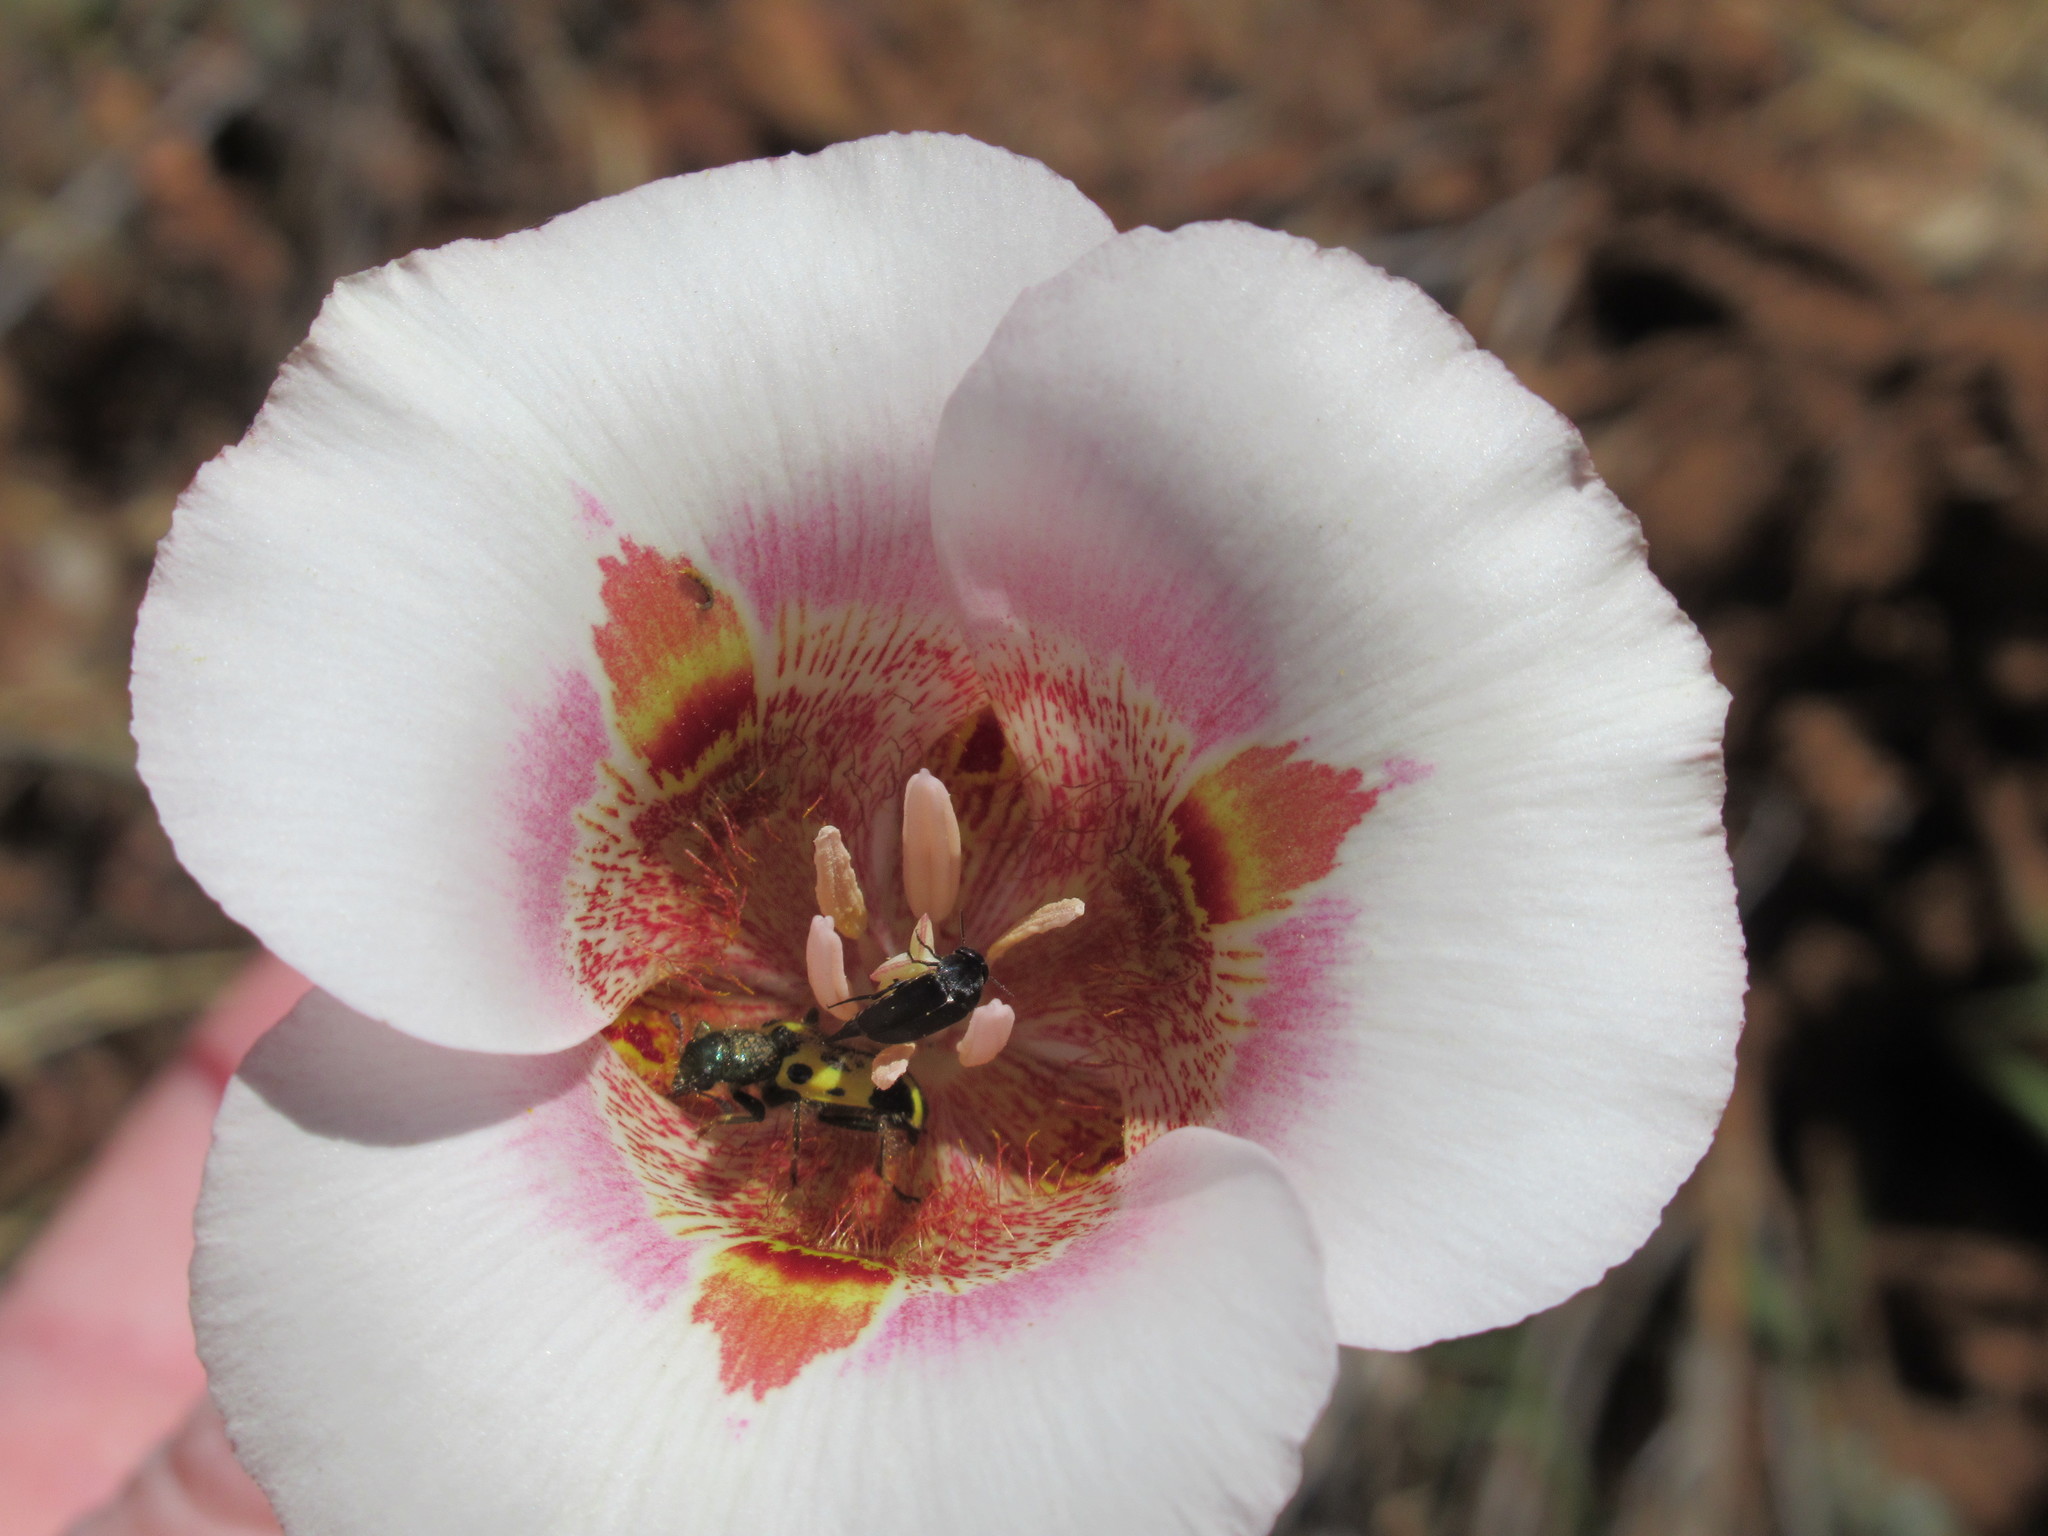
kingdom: Animalia
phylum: Arthropoda
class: Insecta
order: Coleoptera
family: Cleridae
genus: Trichodes
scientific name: Trichodes ornatus
